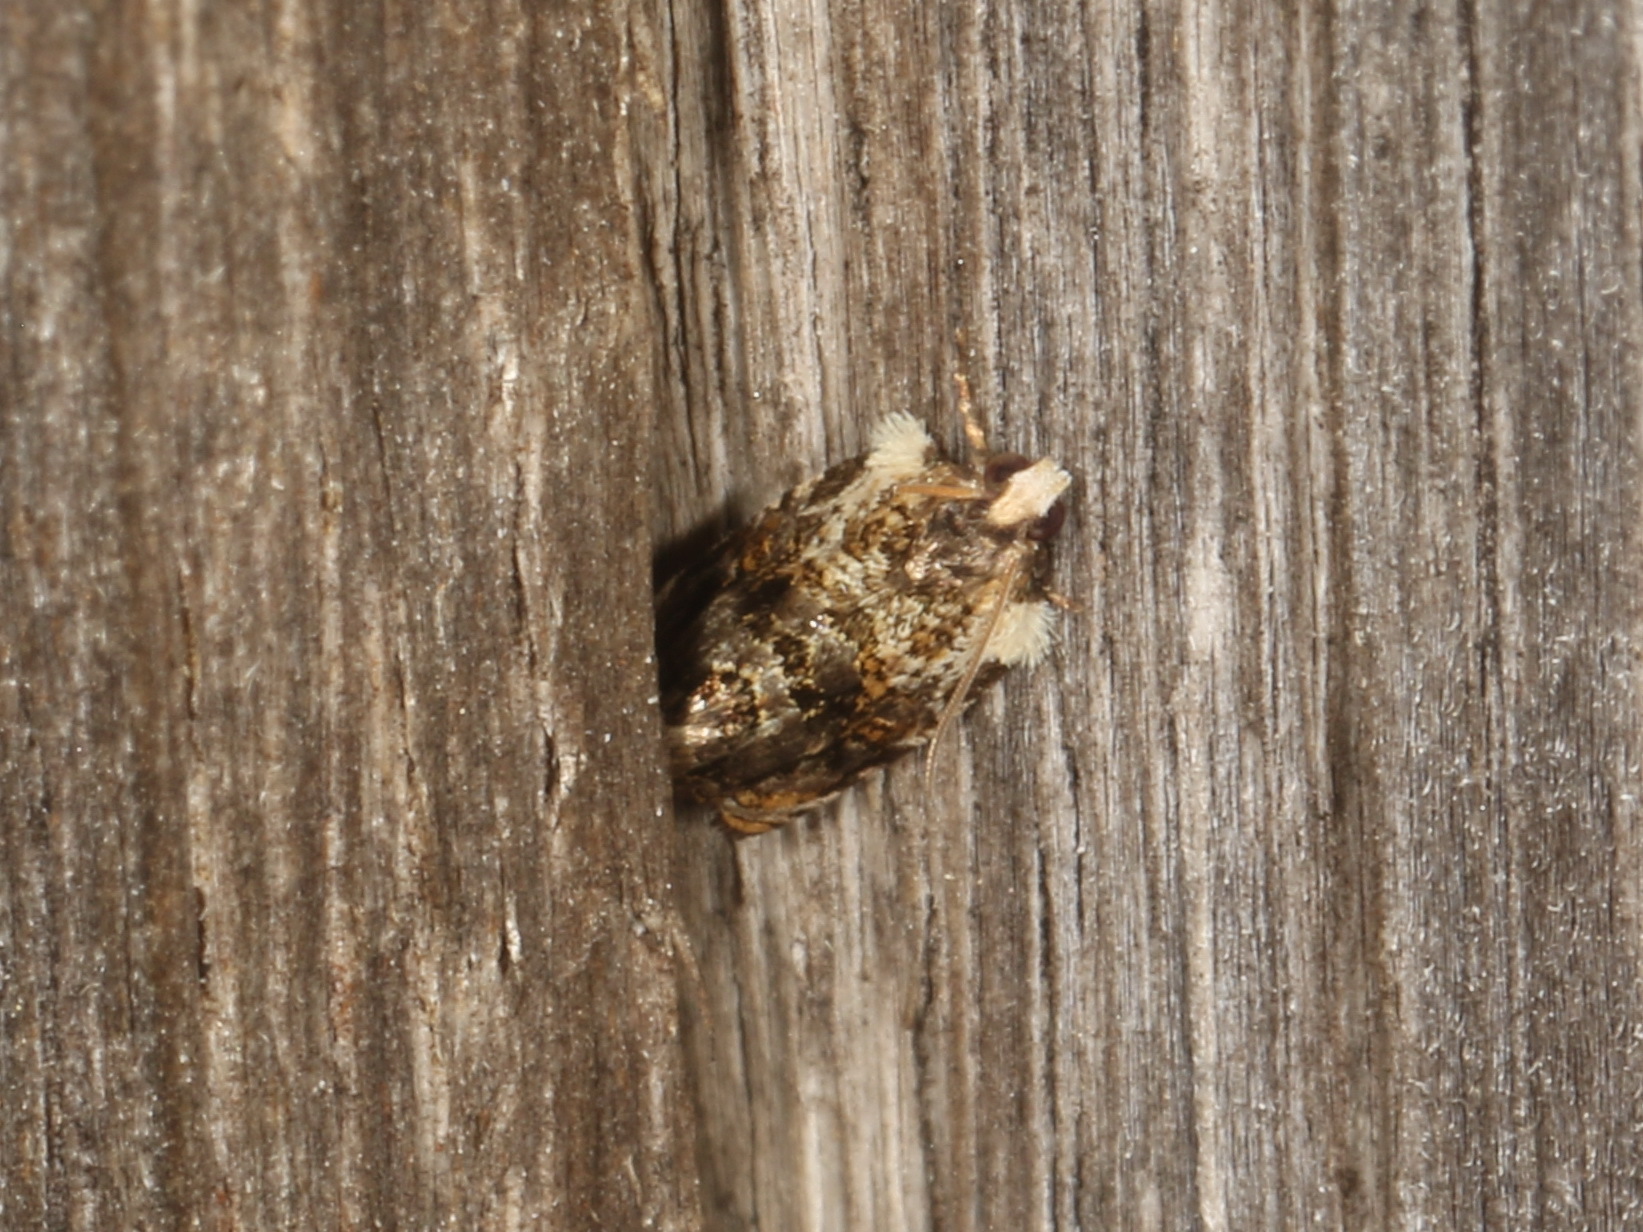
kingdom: Animalia
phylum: Arthropoda
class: Insecta
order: Lepidoptera
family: Tortricidae
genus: Acroceuthes
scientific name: Acroceuthes metaxanthana
